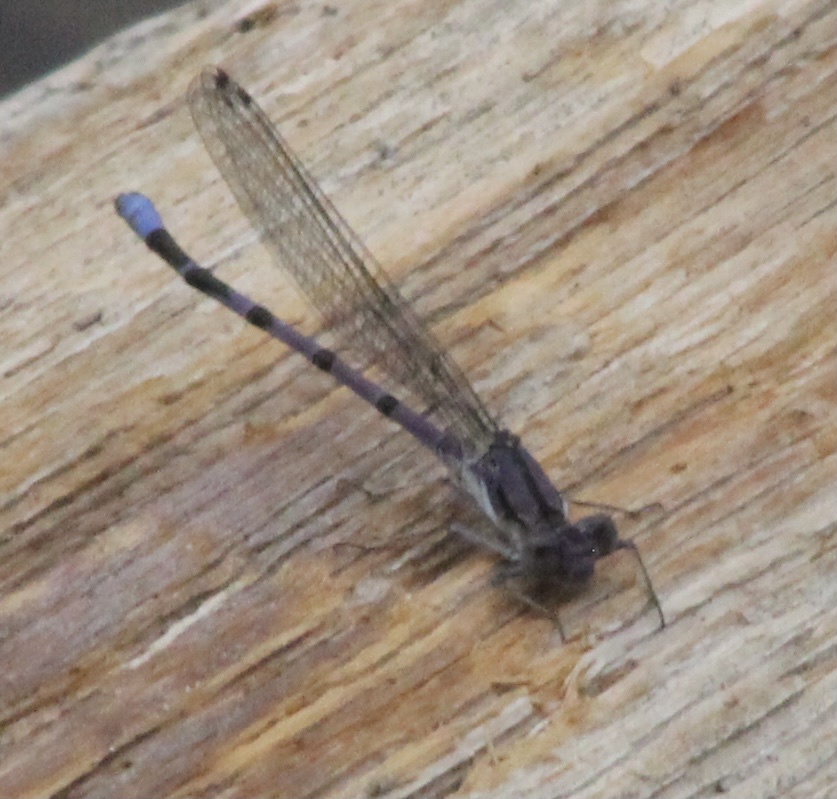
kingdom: Animalia
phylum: Arthropoda
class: Insecta
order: Odonata
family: Coenagrionidae
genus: Argia
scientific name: Argia emma
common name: Emma's dancer
